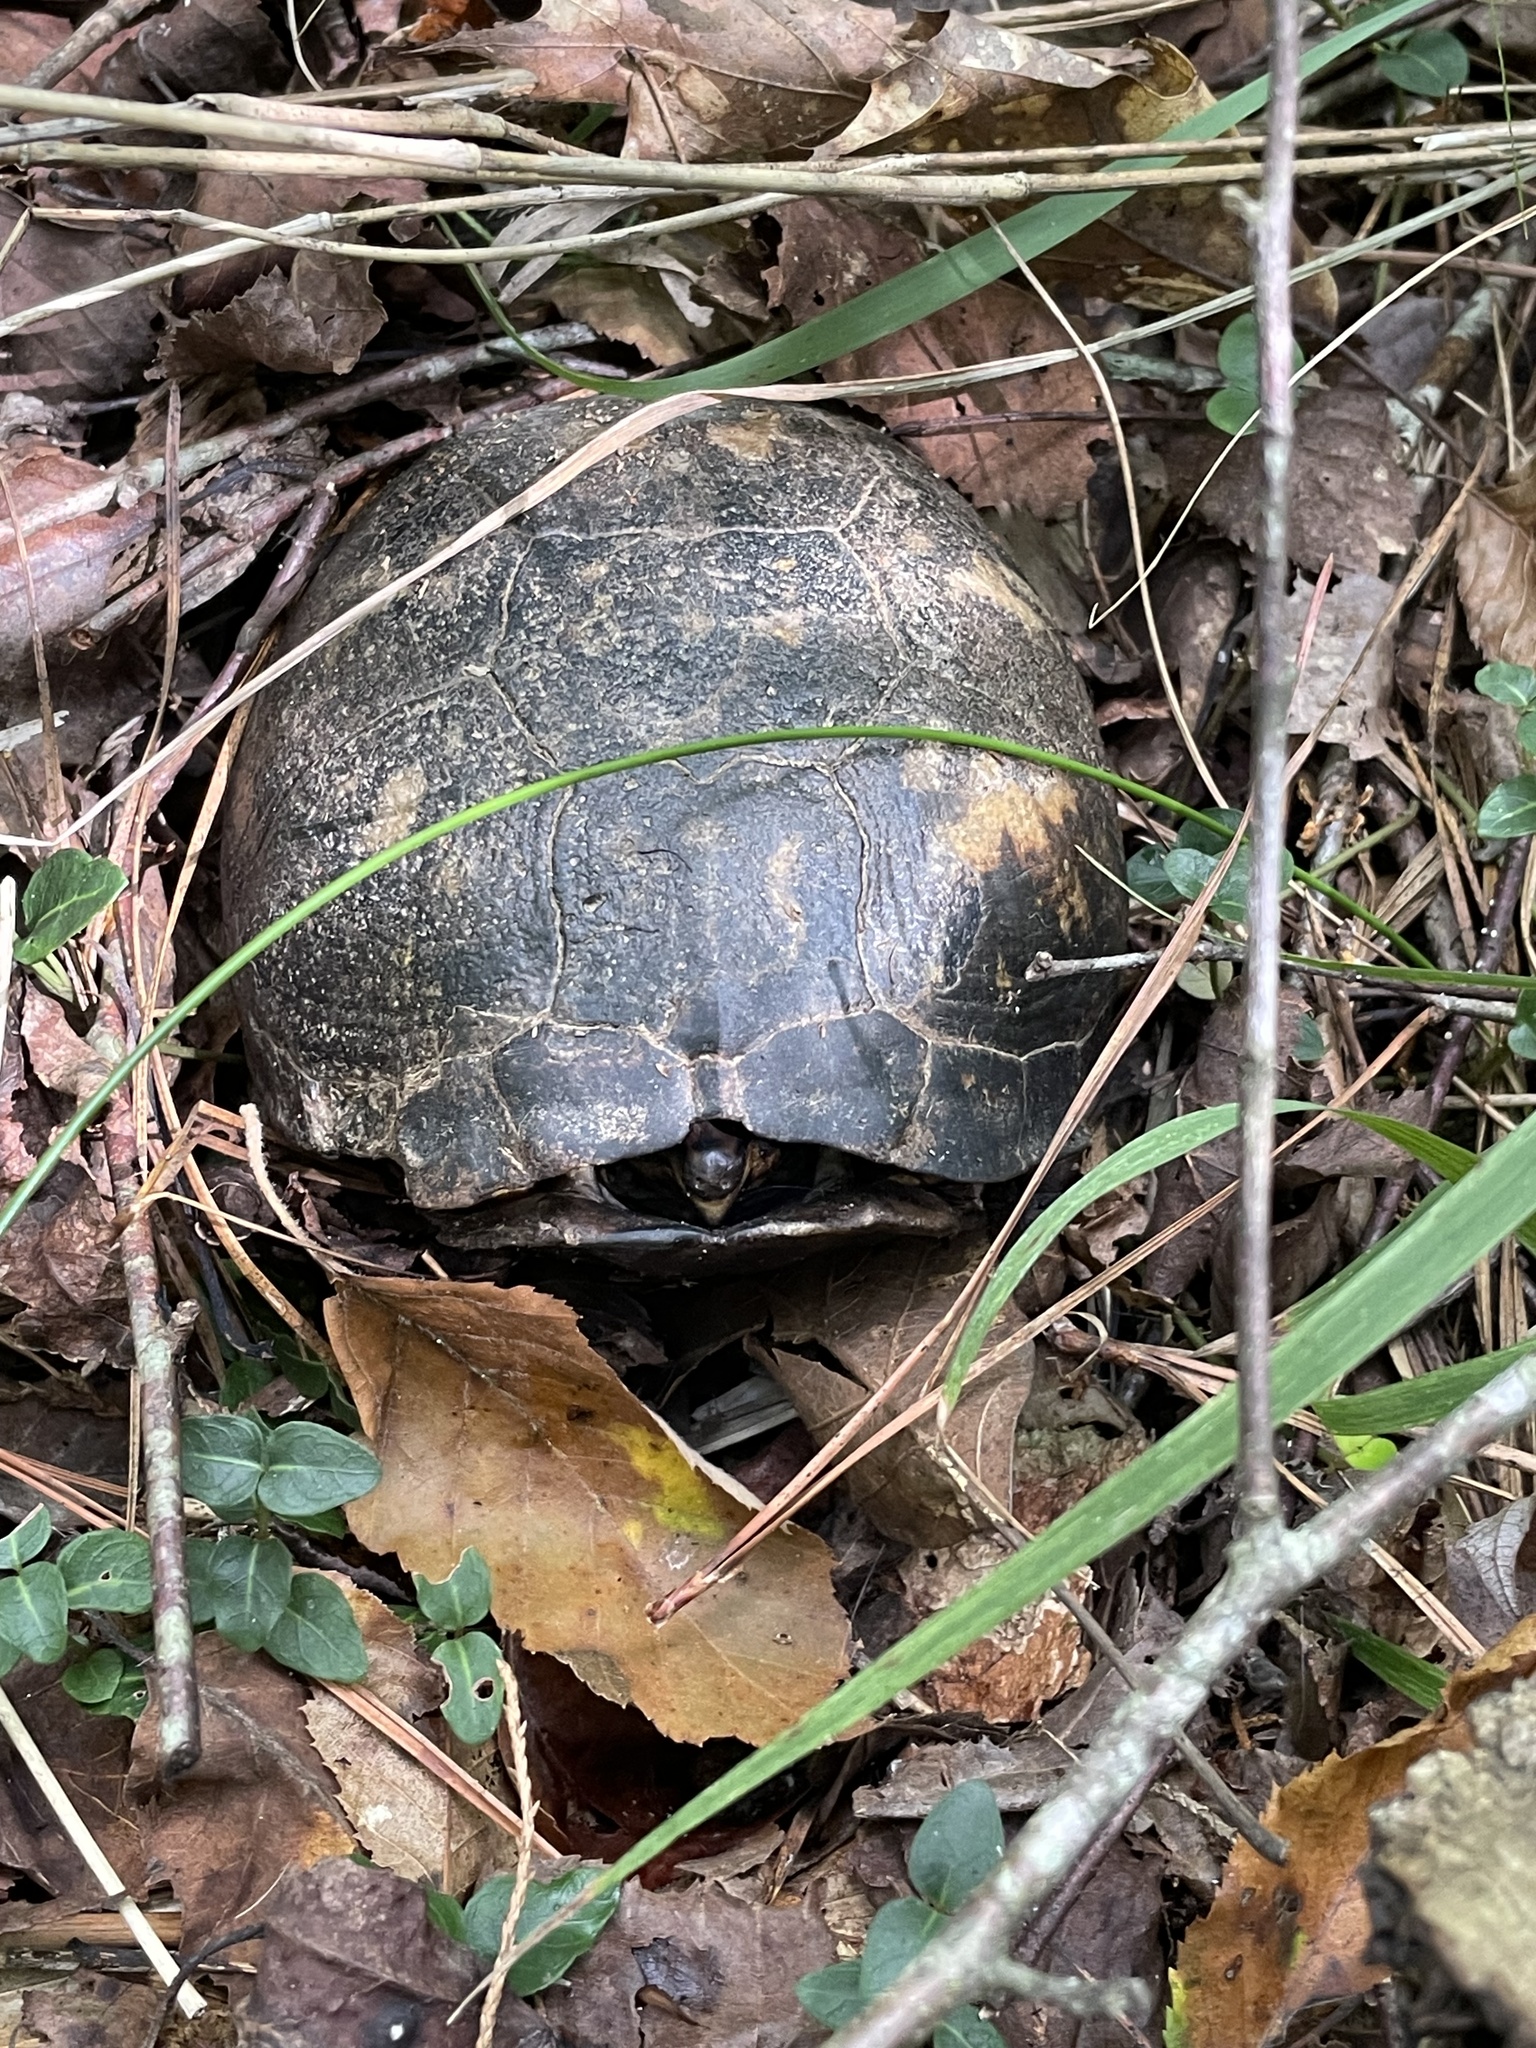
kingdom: Animalia
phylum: Chordata
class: Testudines
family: Emydidae
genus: Terrapene
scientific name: Terrapene carolina
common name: Common box turtle
